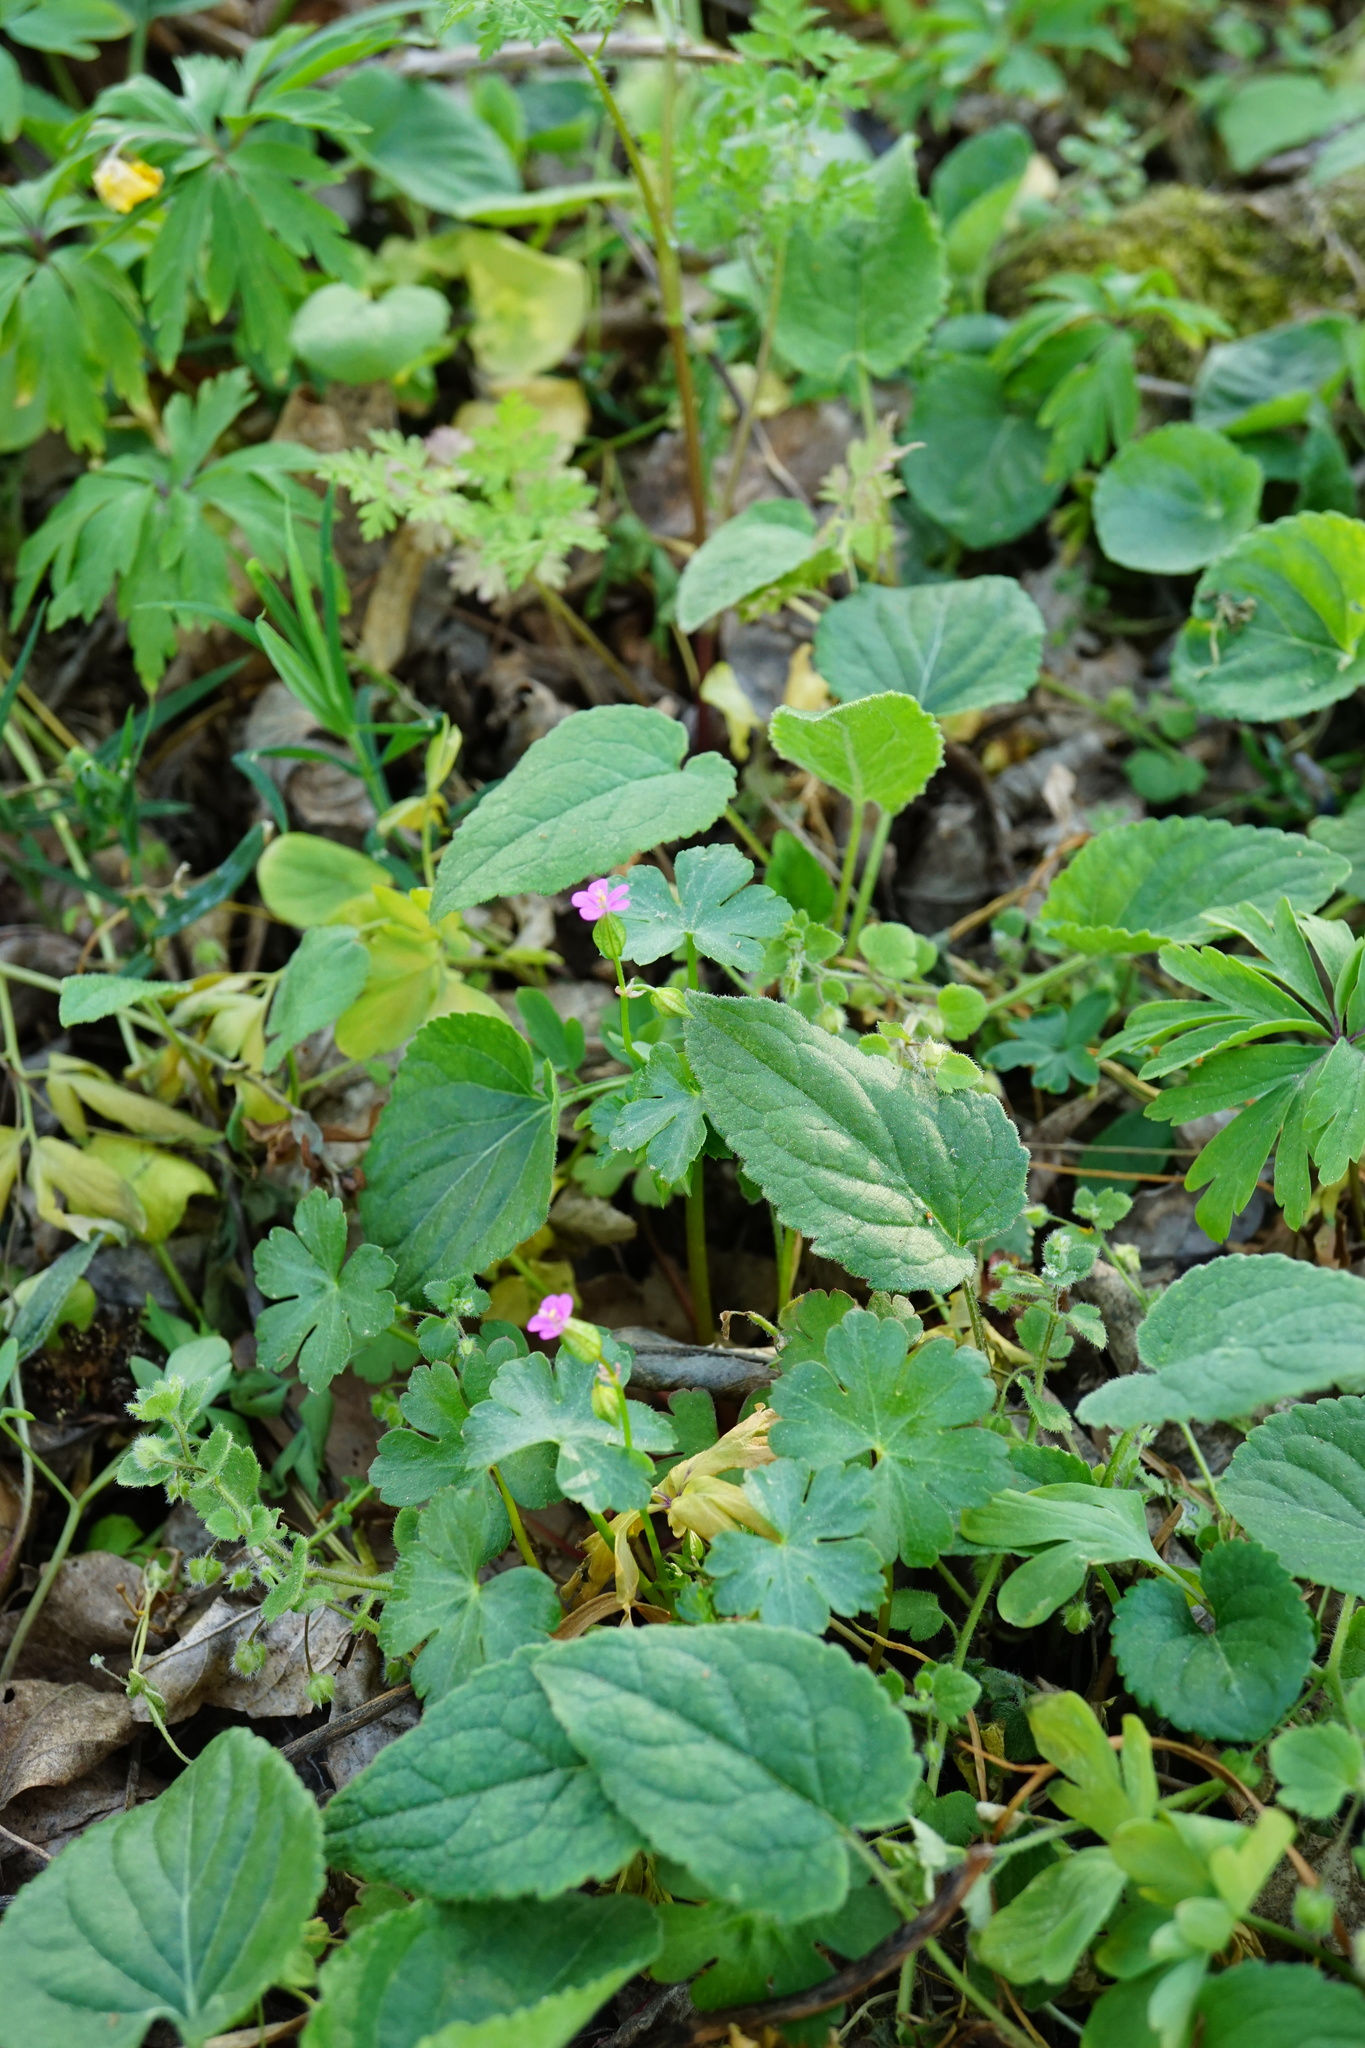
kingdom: Plantae
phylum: Tracheophyta
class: Magnoliopsida
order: Geraniales
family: Geraniaceae
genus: Geranium
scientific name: Geranium lucidum
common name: Shining crane's-bill
